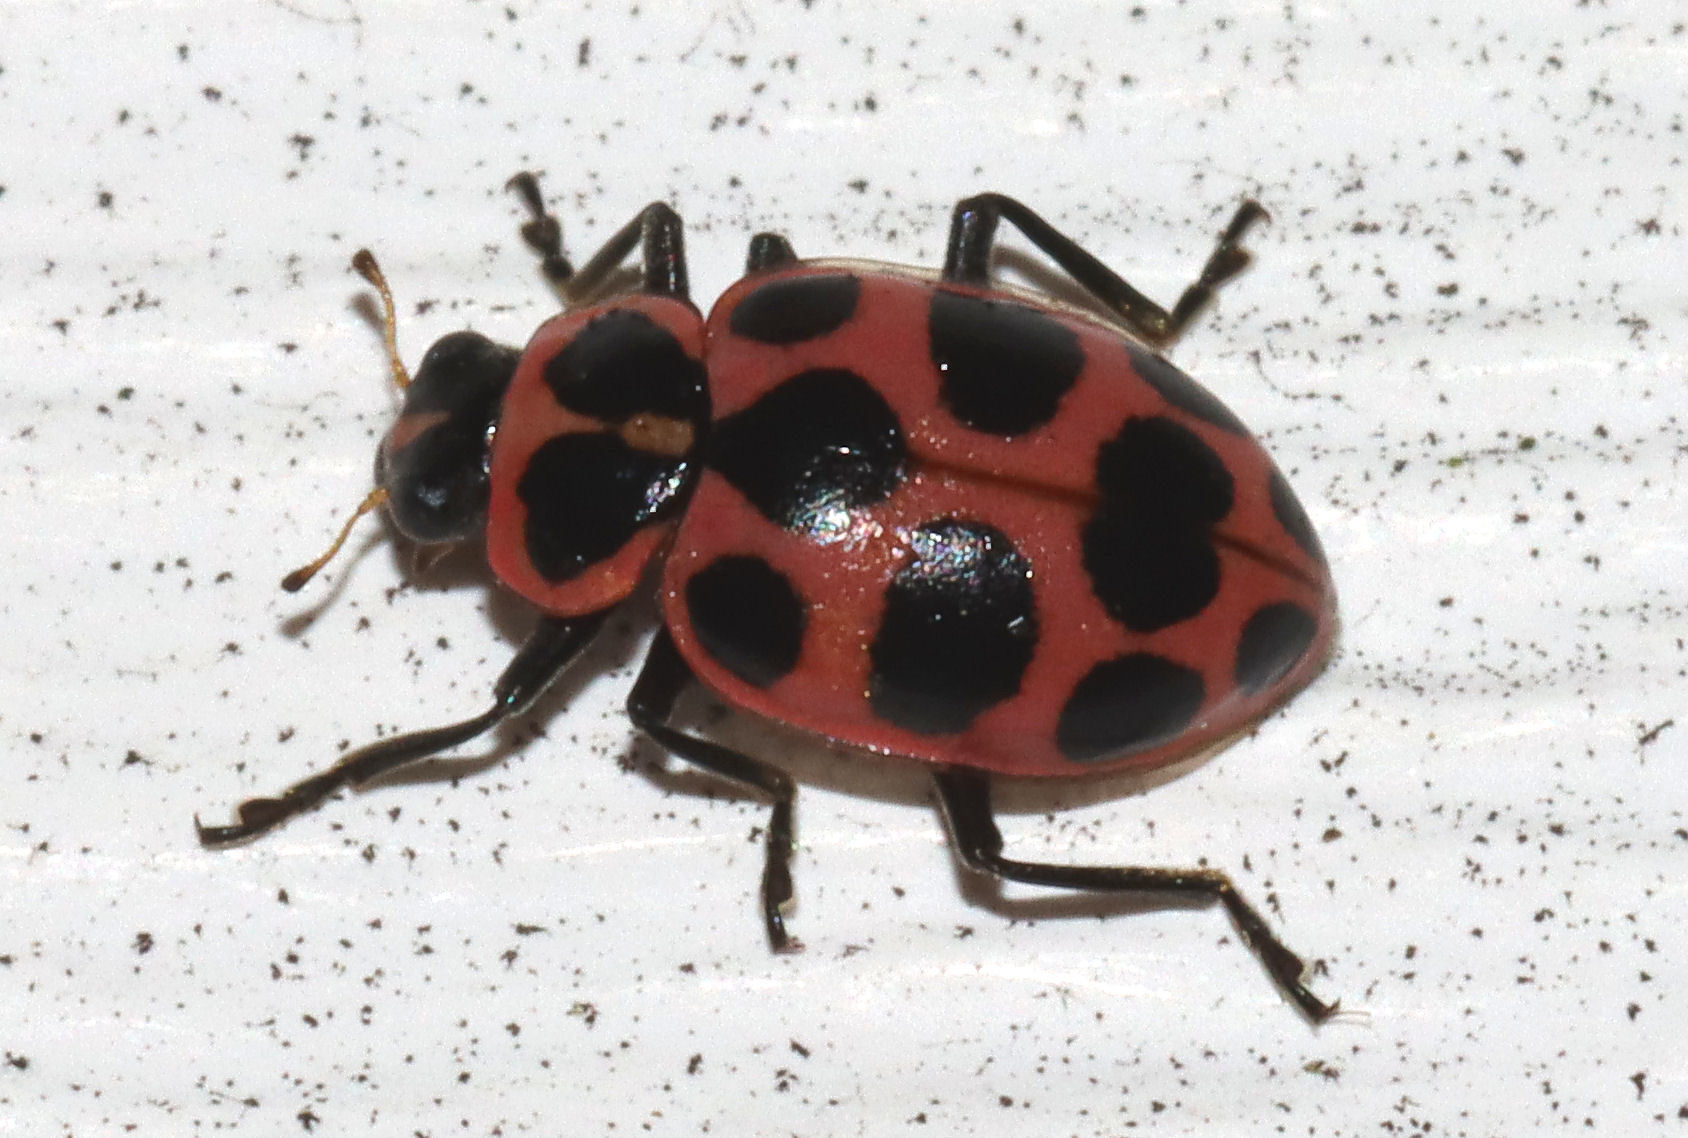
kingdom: Animalia
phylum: Arthropoda
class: Insecta
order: Coleoptera
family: Coccinellidae
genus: Coleomegilla
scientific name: Coleomegilla maculata
